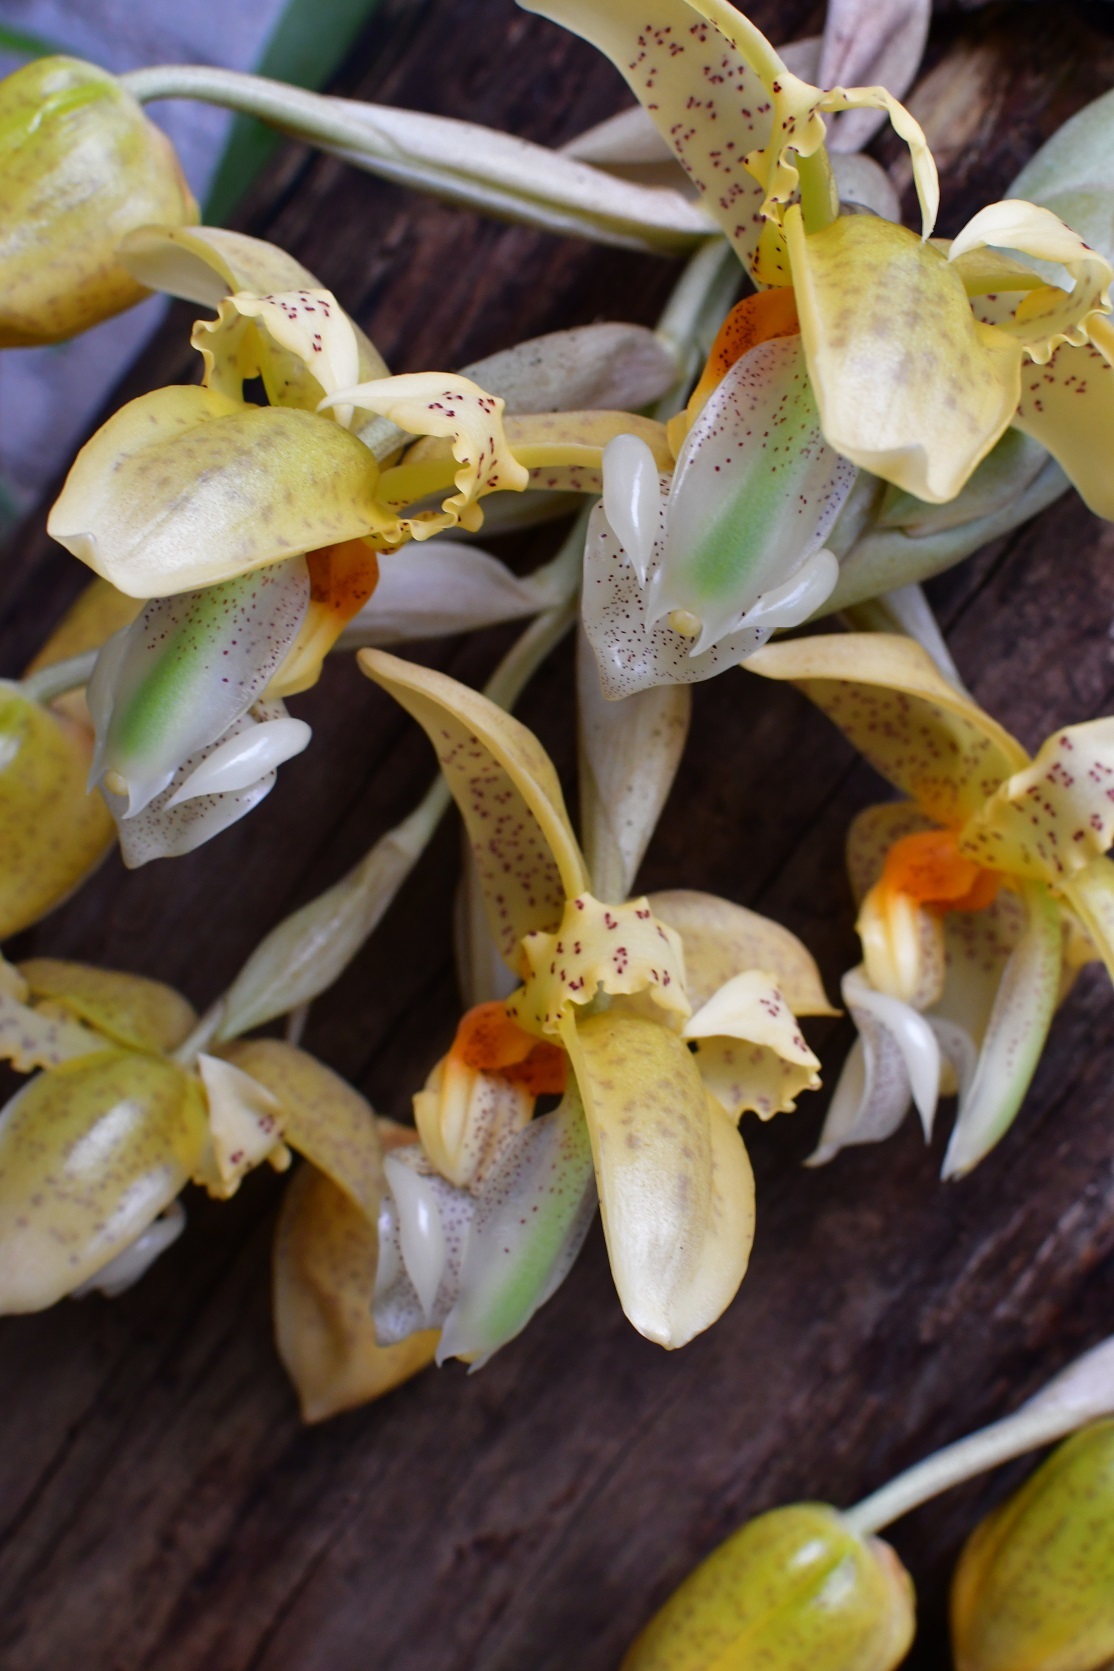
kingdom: Plantae
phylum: Tracheophyta
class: Liliopsida
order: Asparagales
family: Orchidaceae
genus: Stanhopea
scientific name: Stanhopea graveolens
